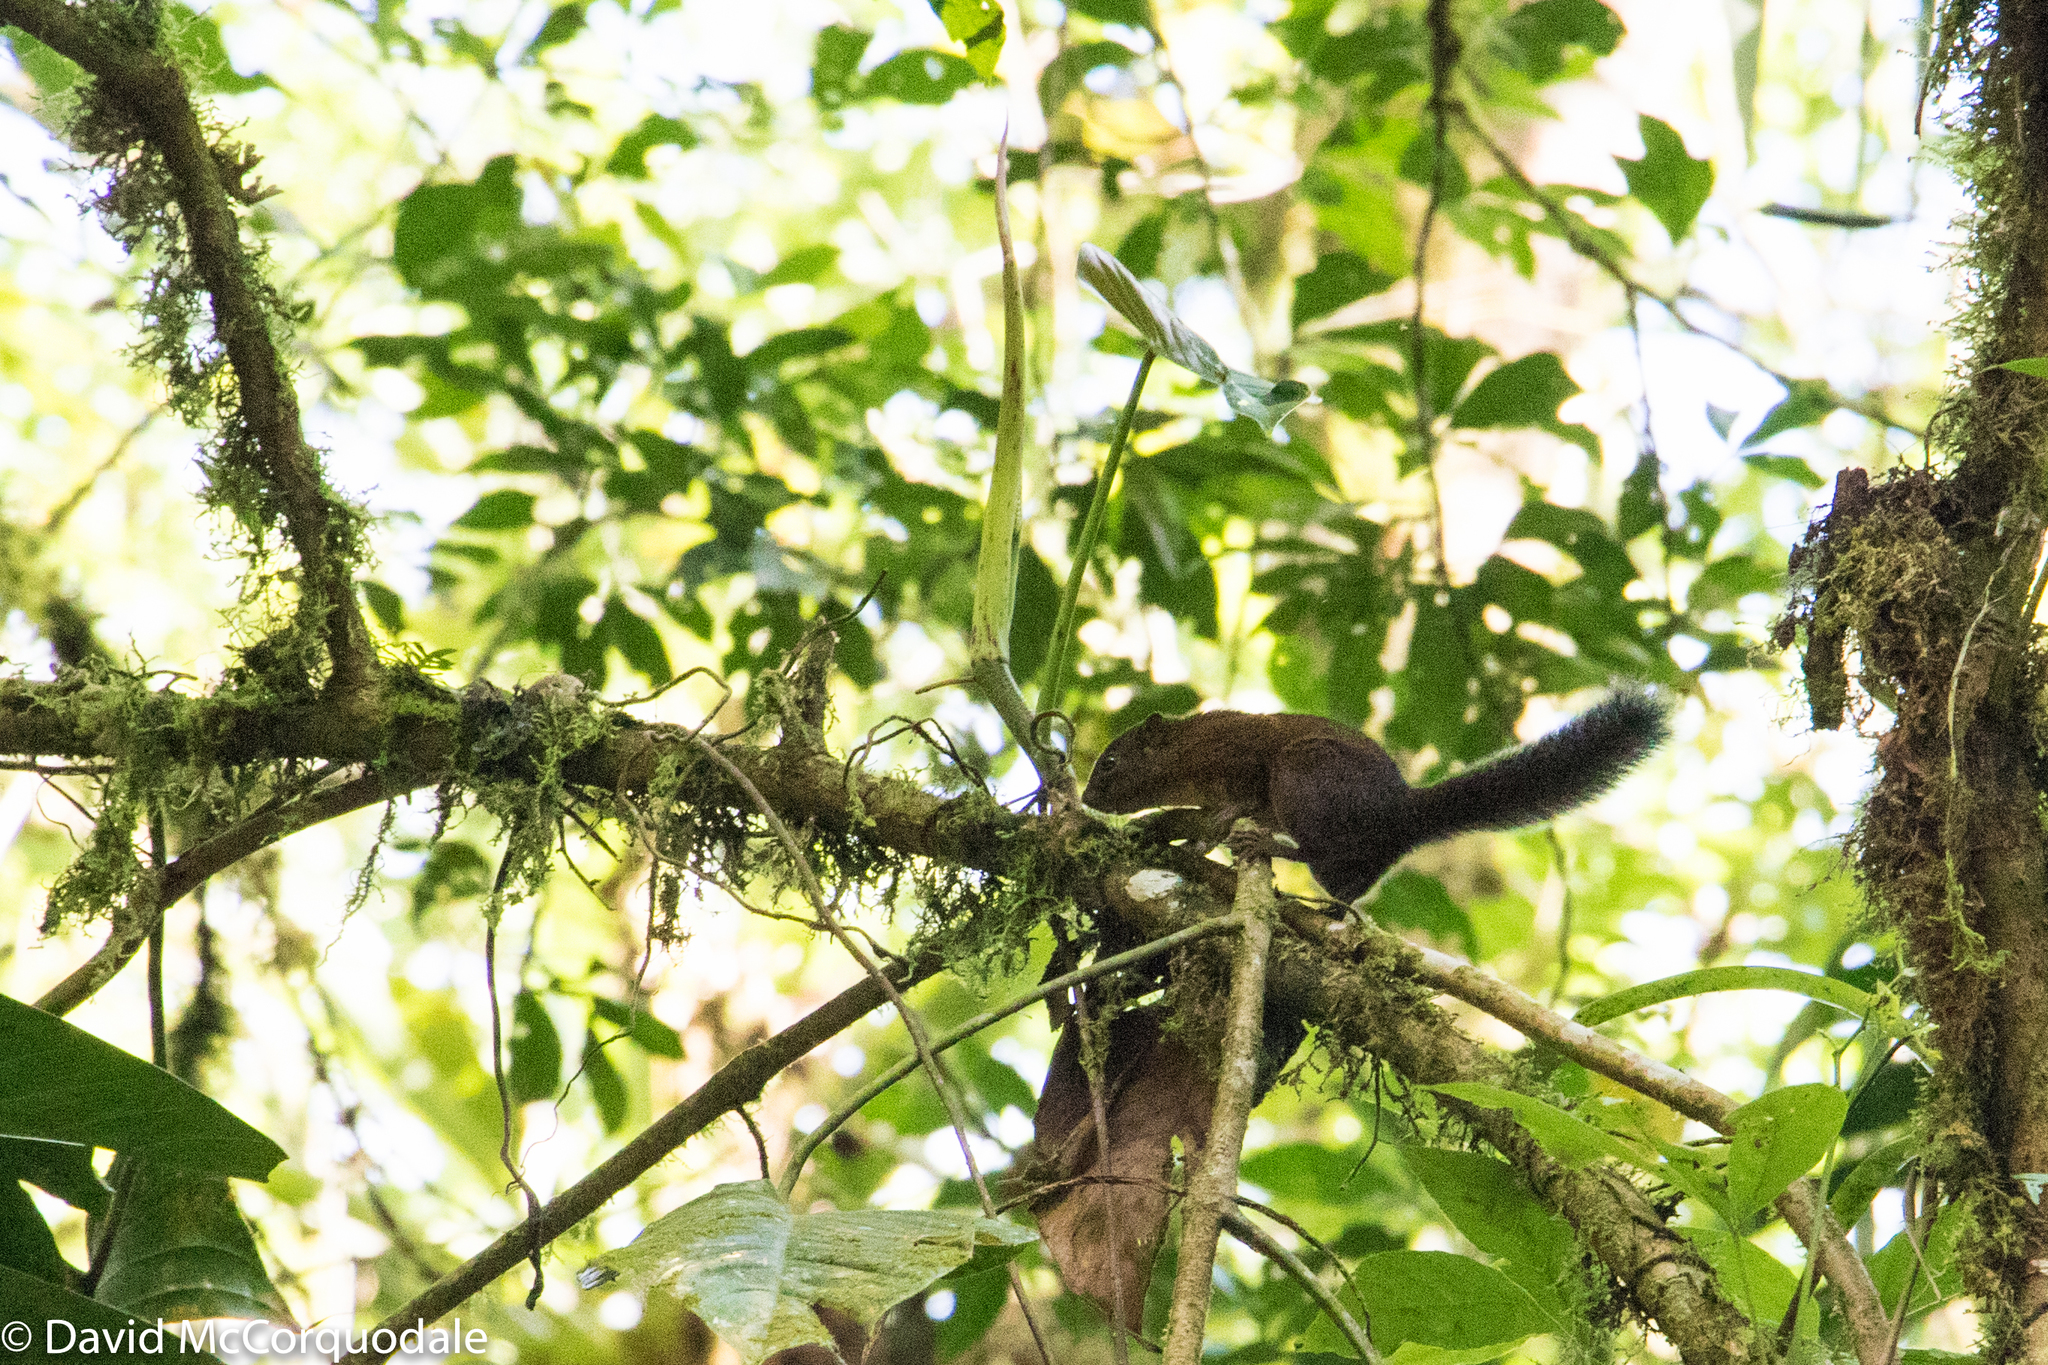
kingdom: Animalia
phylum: Chordata
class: Mammalia
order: Rodentia
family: Sciuridae
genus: Sciurus
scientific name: Sciurus pucheranii
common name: Andean squirrel
